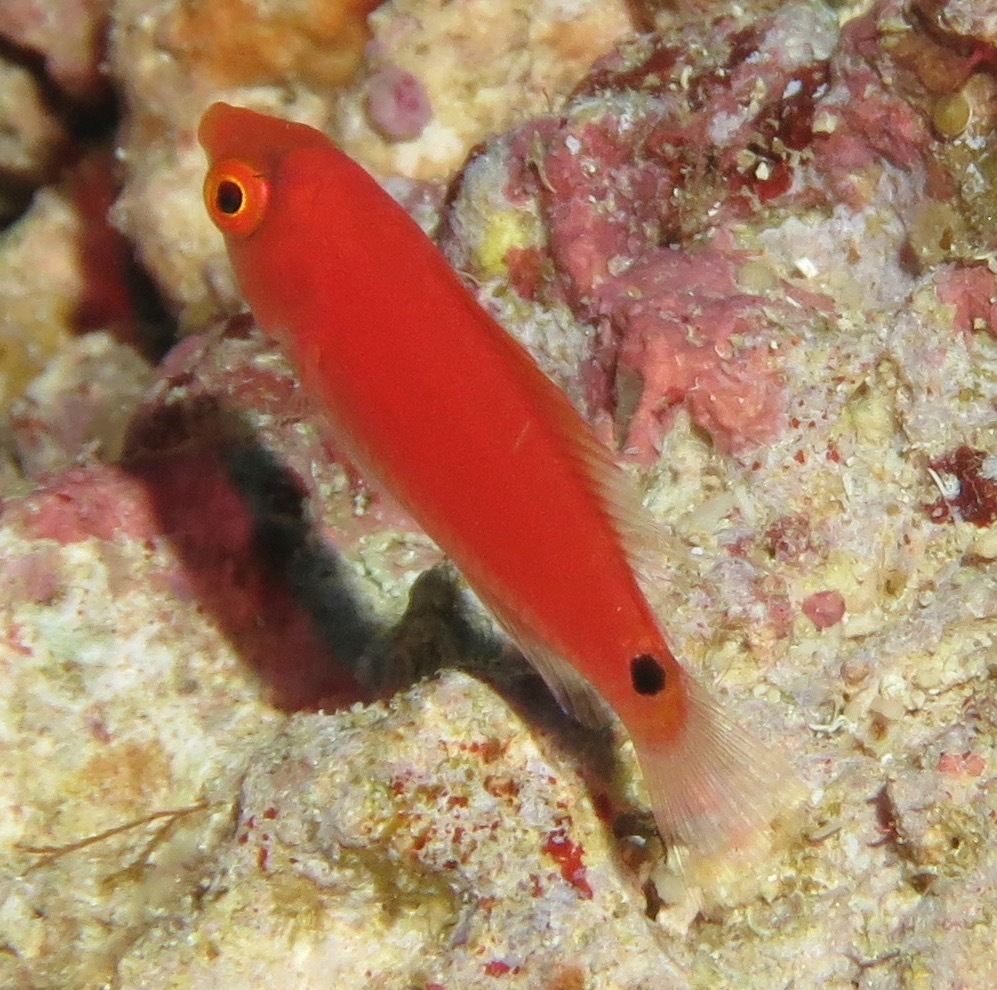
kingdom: Animalia
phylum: Chordata
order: Perciformes
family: Labridae
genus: Cirrhilabrus
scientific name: Cirrhilabrus marjorie
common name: Marjorie's wrasse
